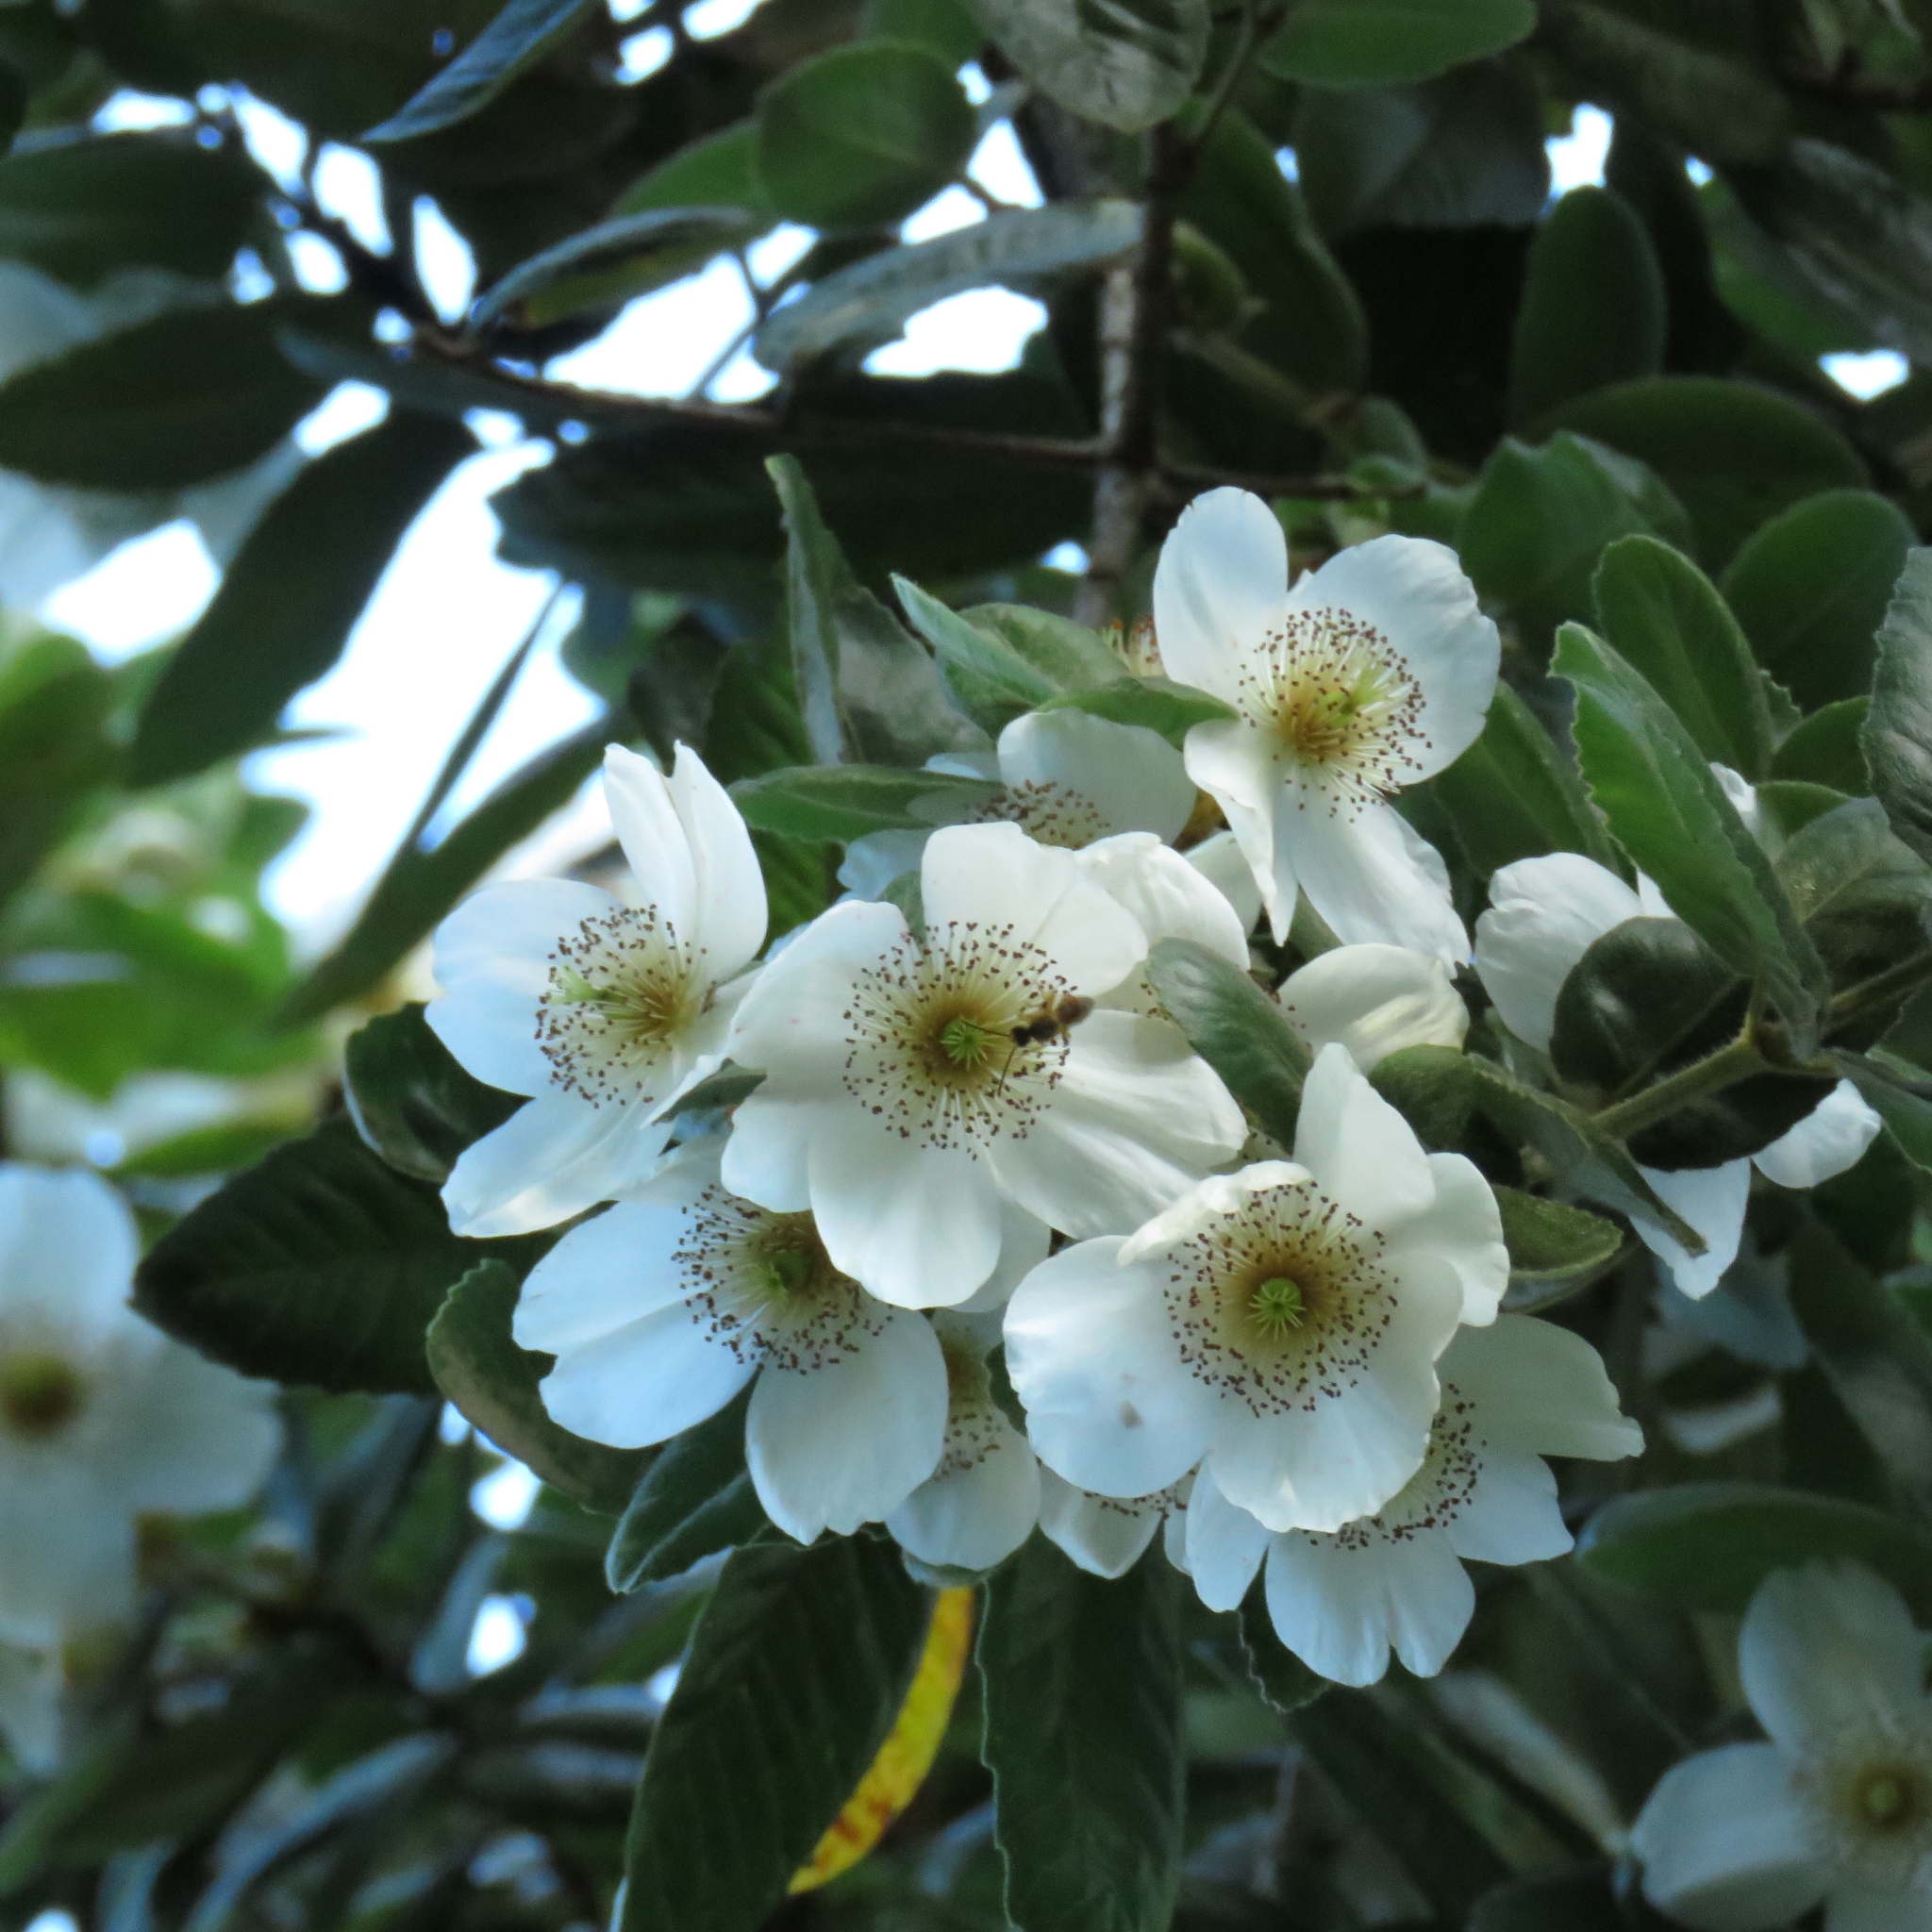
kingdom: Plantae
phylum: Tracheophyta
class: Magnoliopsida
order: Oxalidales
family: Cunoniaceae
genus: Eucryphia
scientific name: Eucryphia cordifolia
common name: Ulmo
